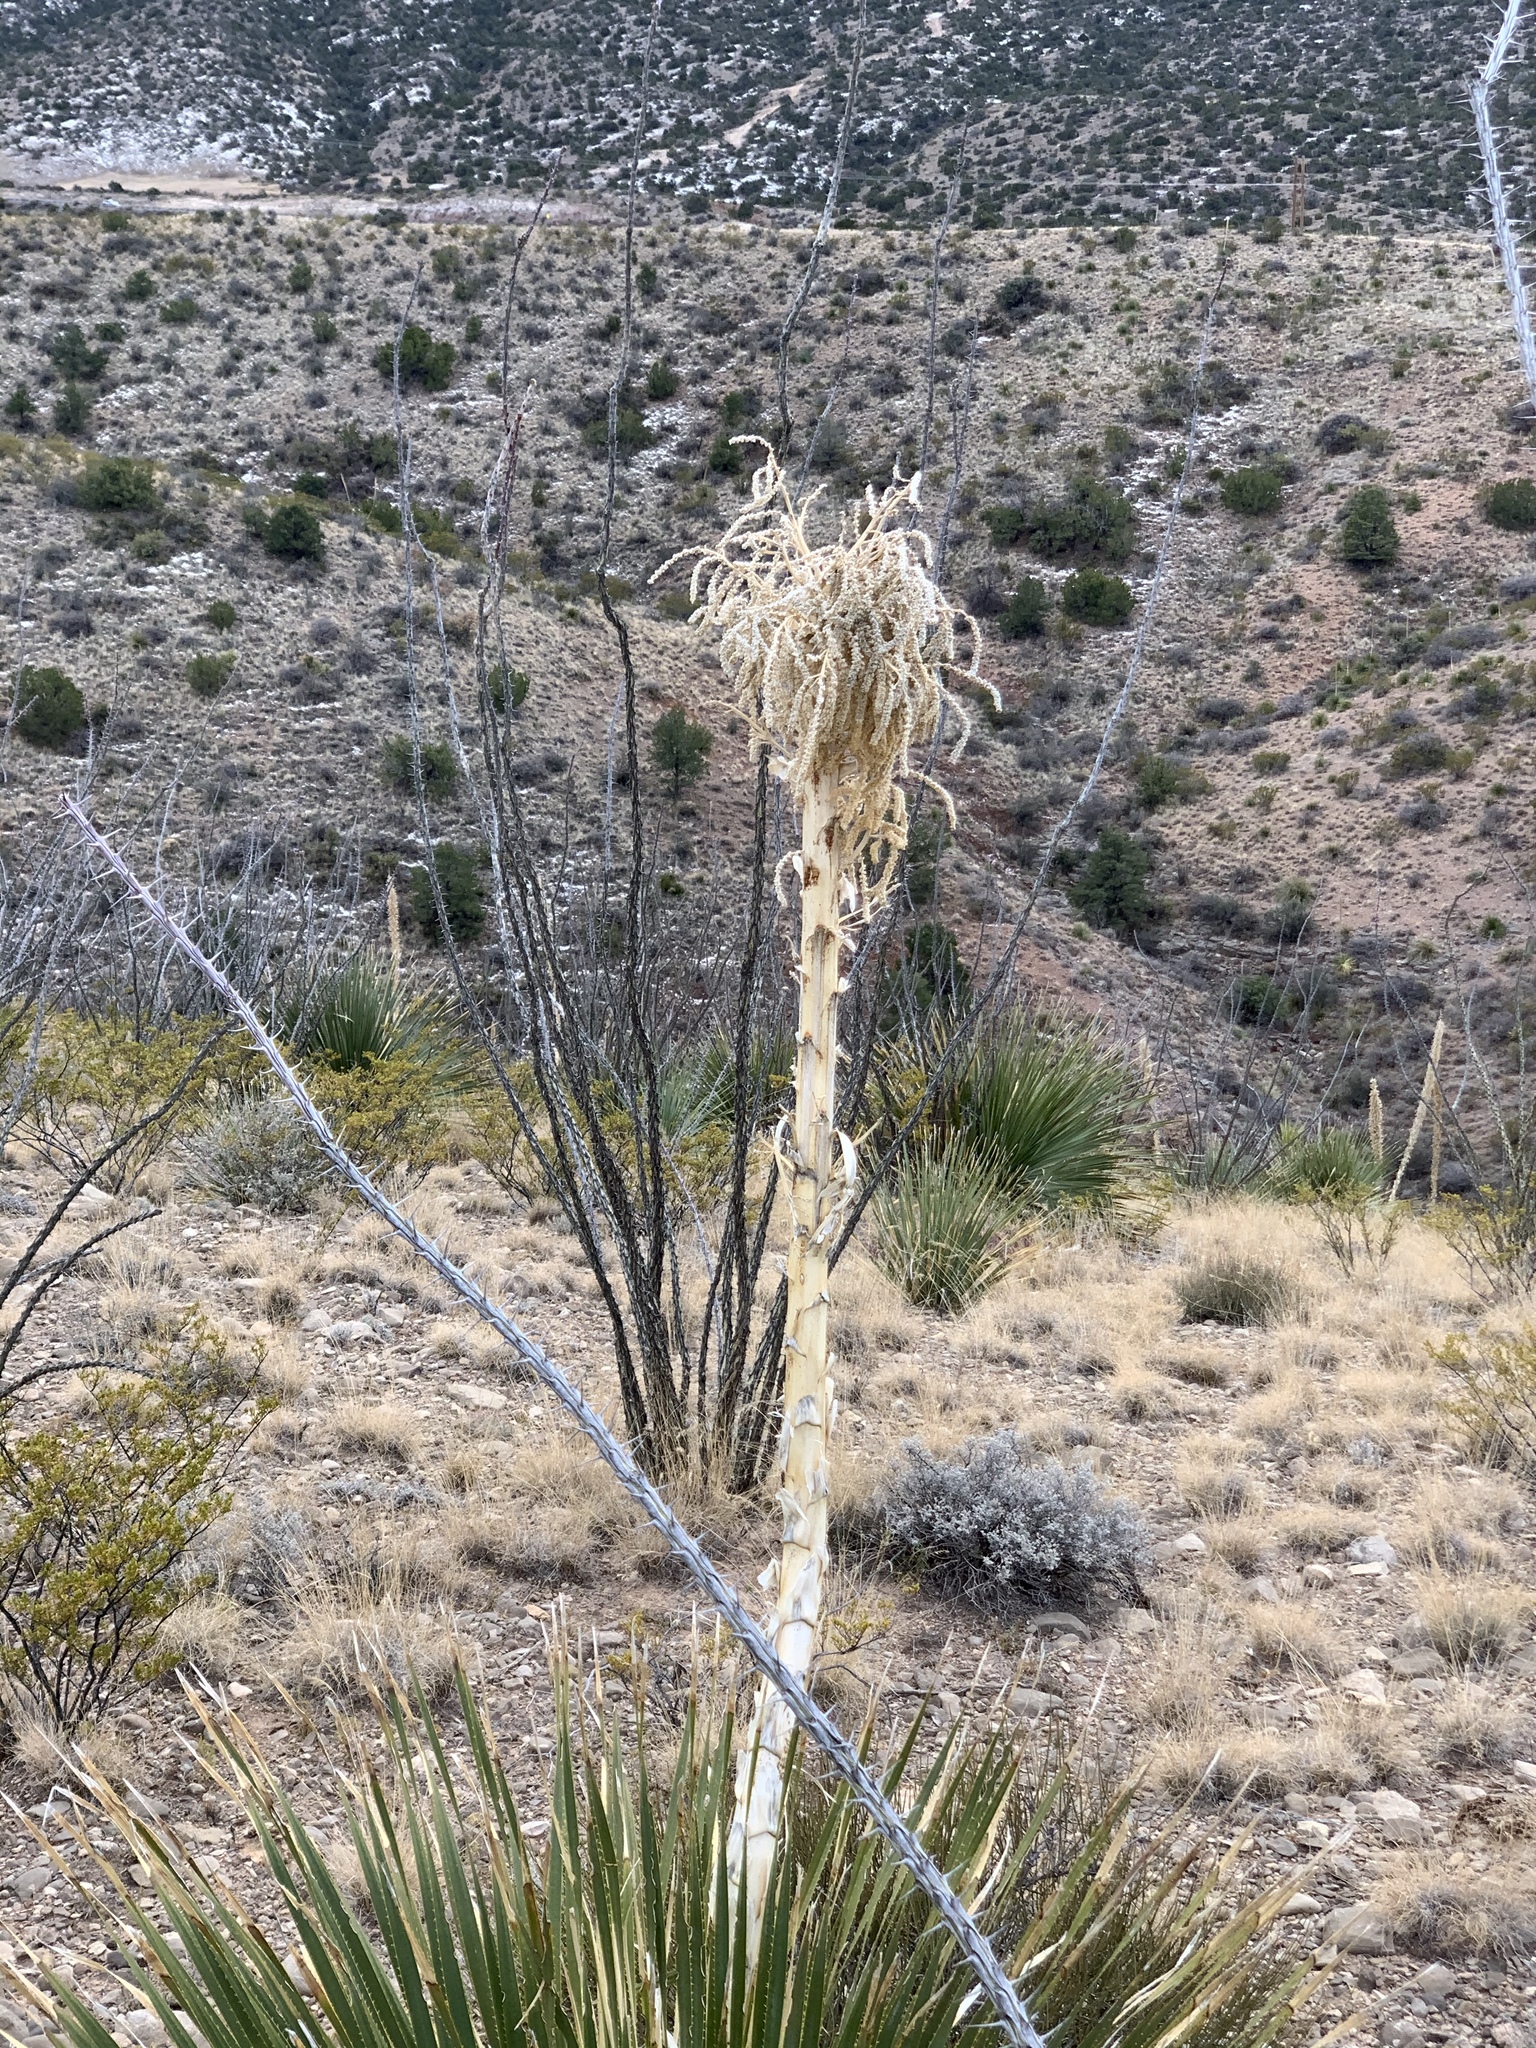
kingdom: Plantae
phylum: Tracheophyta
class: Liliopsida
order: Asparagales
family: Asparagaceae
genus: Dasylirion
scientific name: Dasylirion wheeleri
